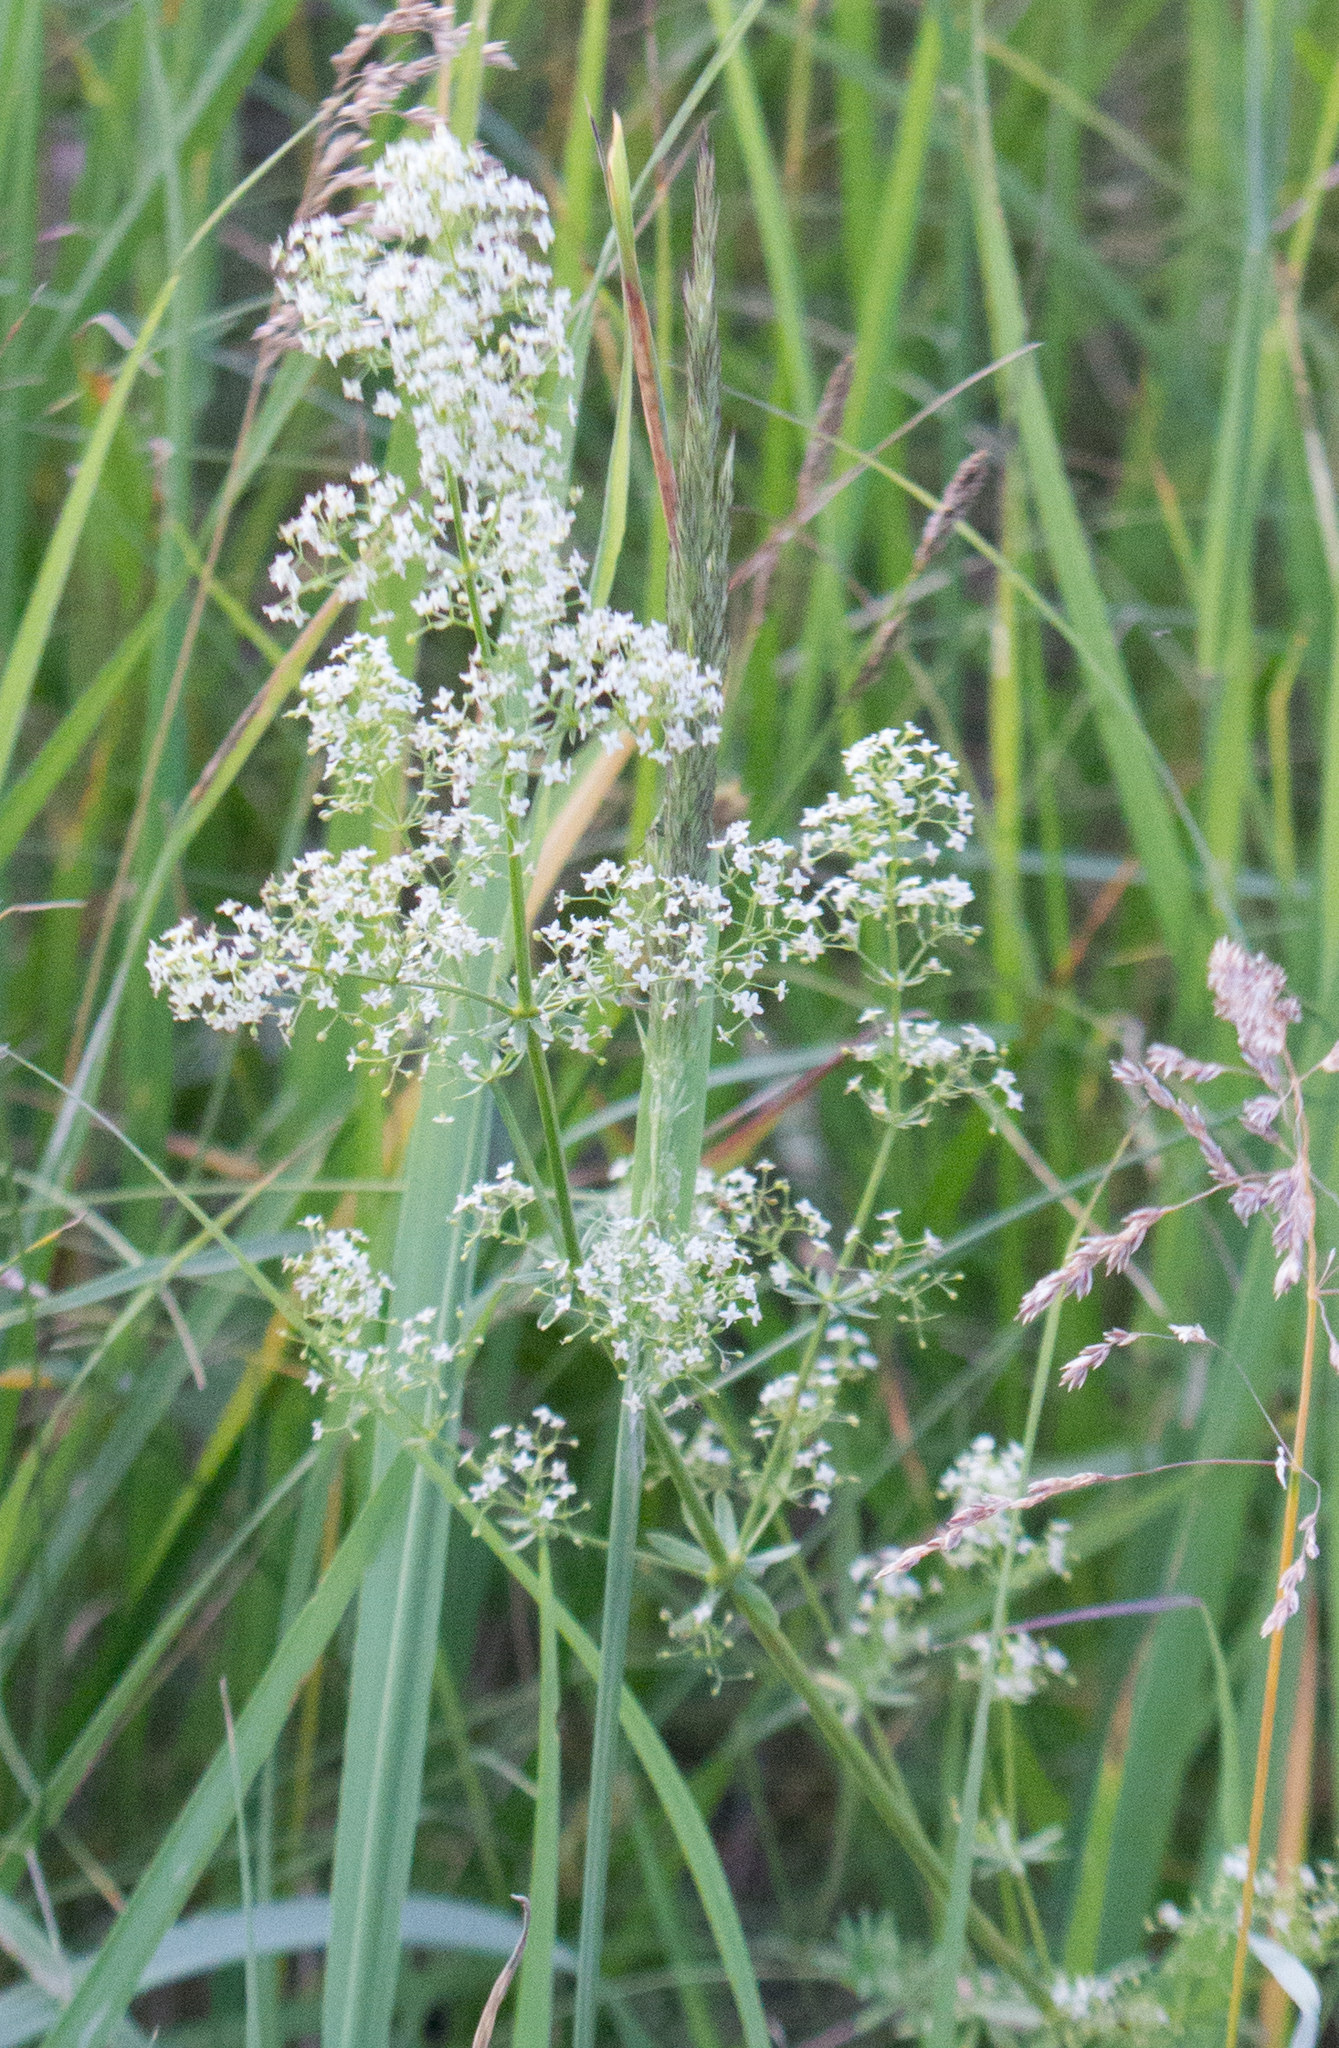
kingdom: Plantae
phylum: Tracheophyta
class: Magnoliopsida
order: Gentianales
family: Rubiaceae
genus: Galium
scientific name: Galium mollugo
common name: Hedge bedstraw
